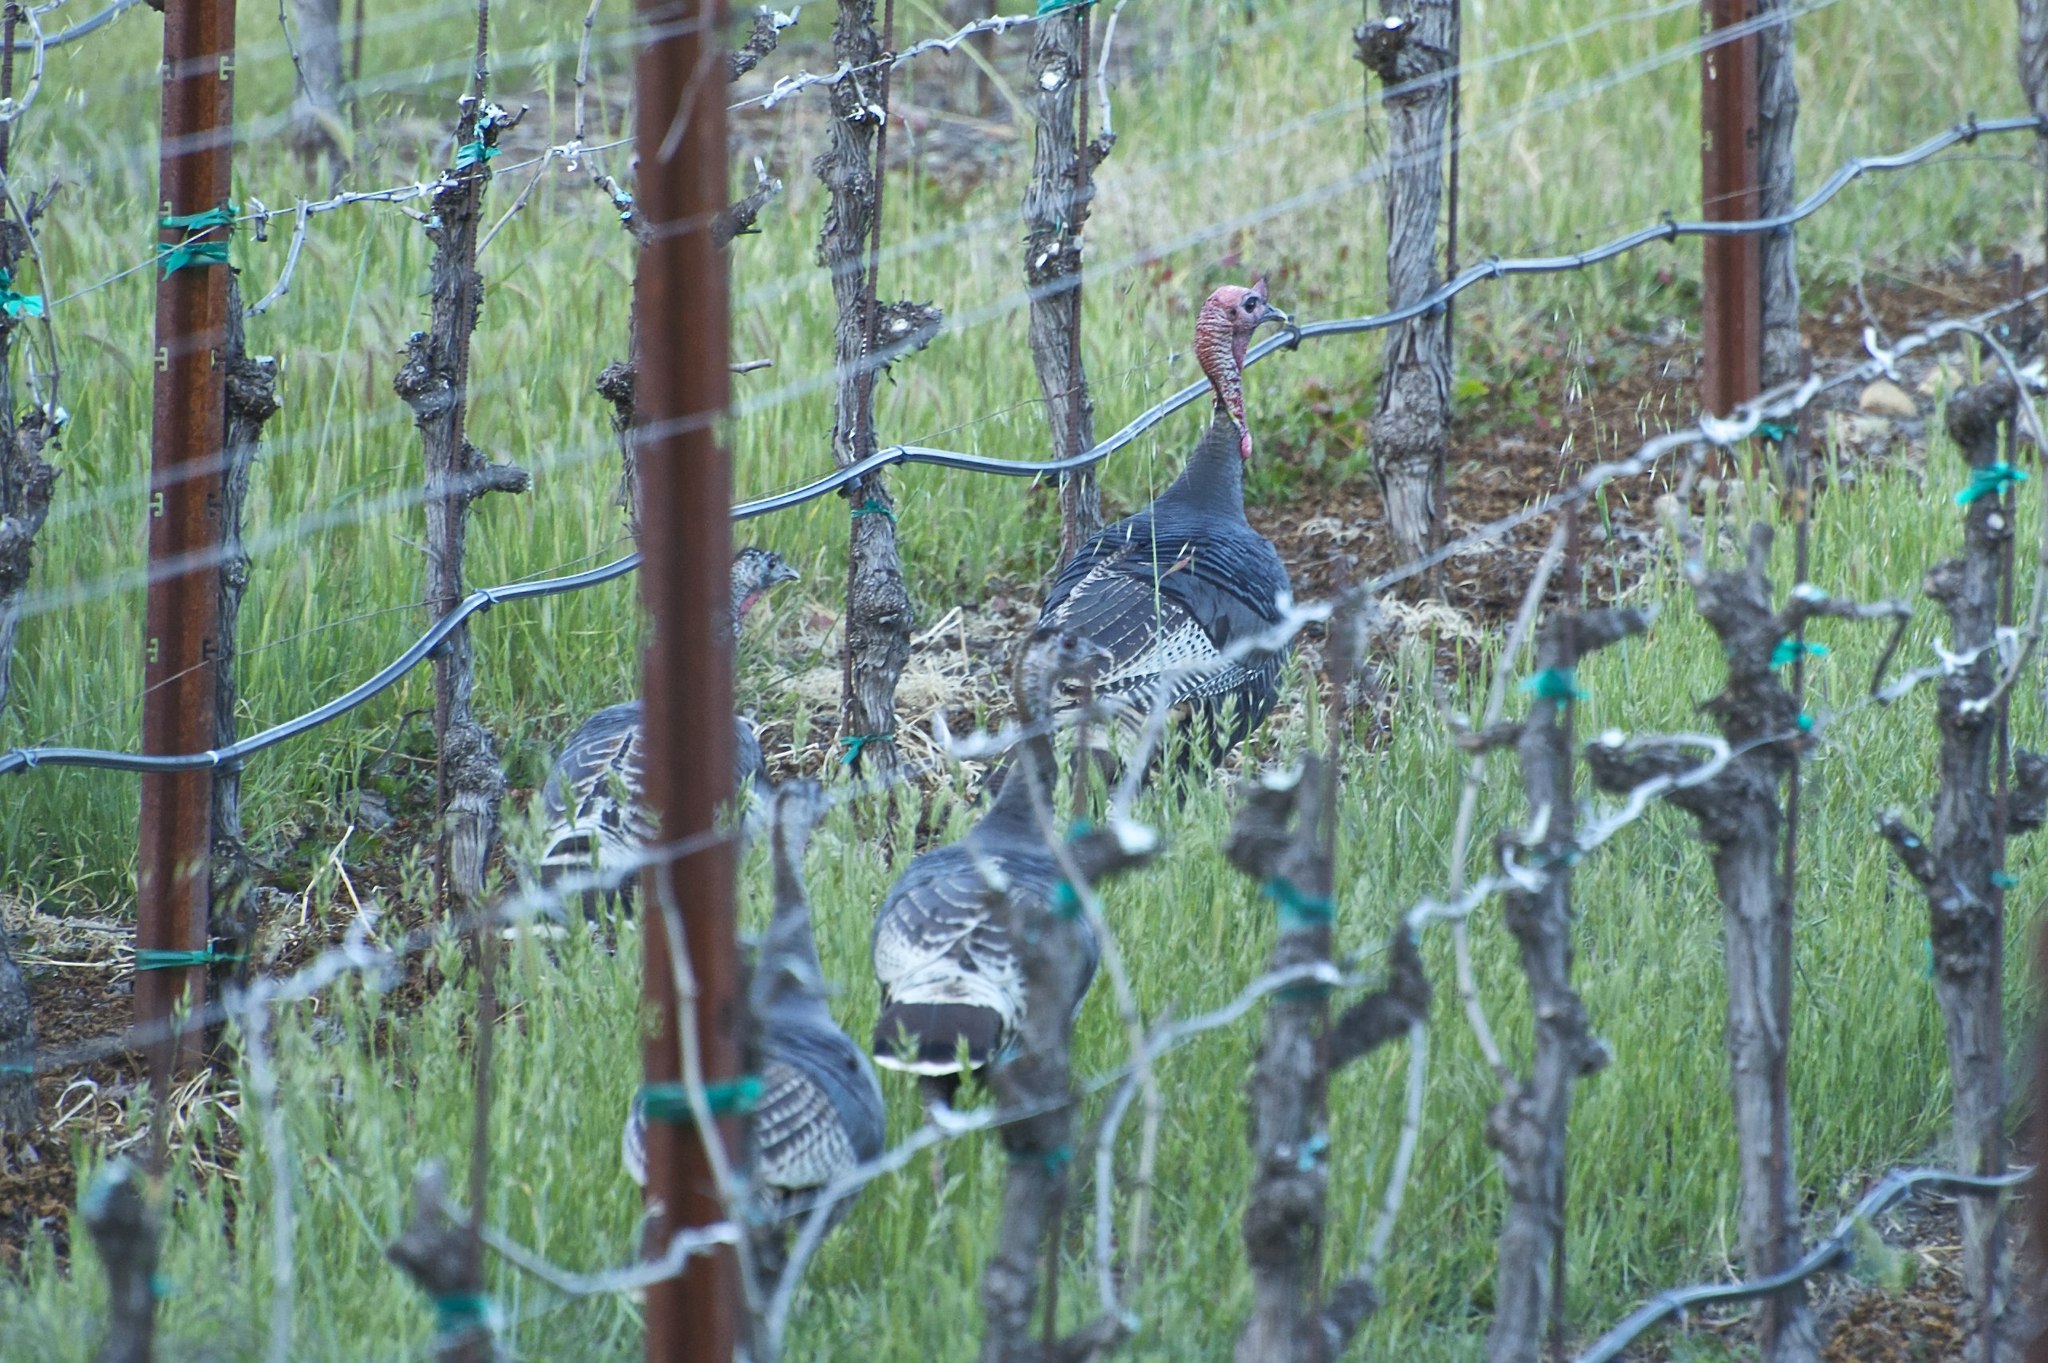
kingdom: Animalia
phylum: Chordata
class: Aves
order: Galliformes
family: Phasianidae
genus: Meleagris
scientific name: Meleagris gallopavo
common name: Wild turkey
